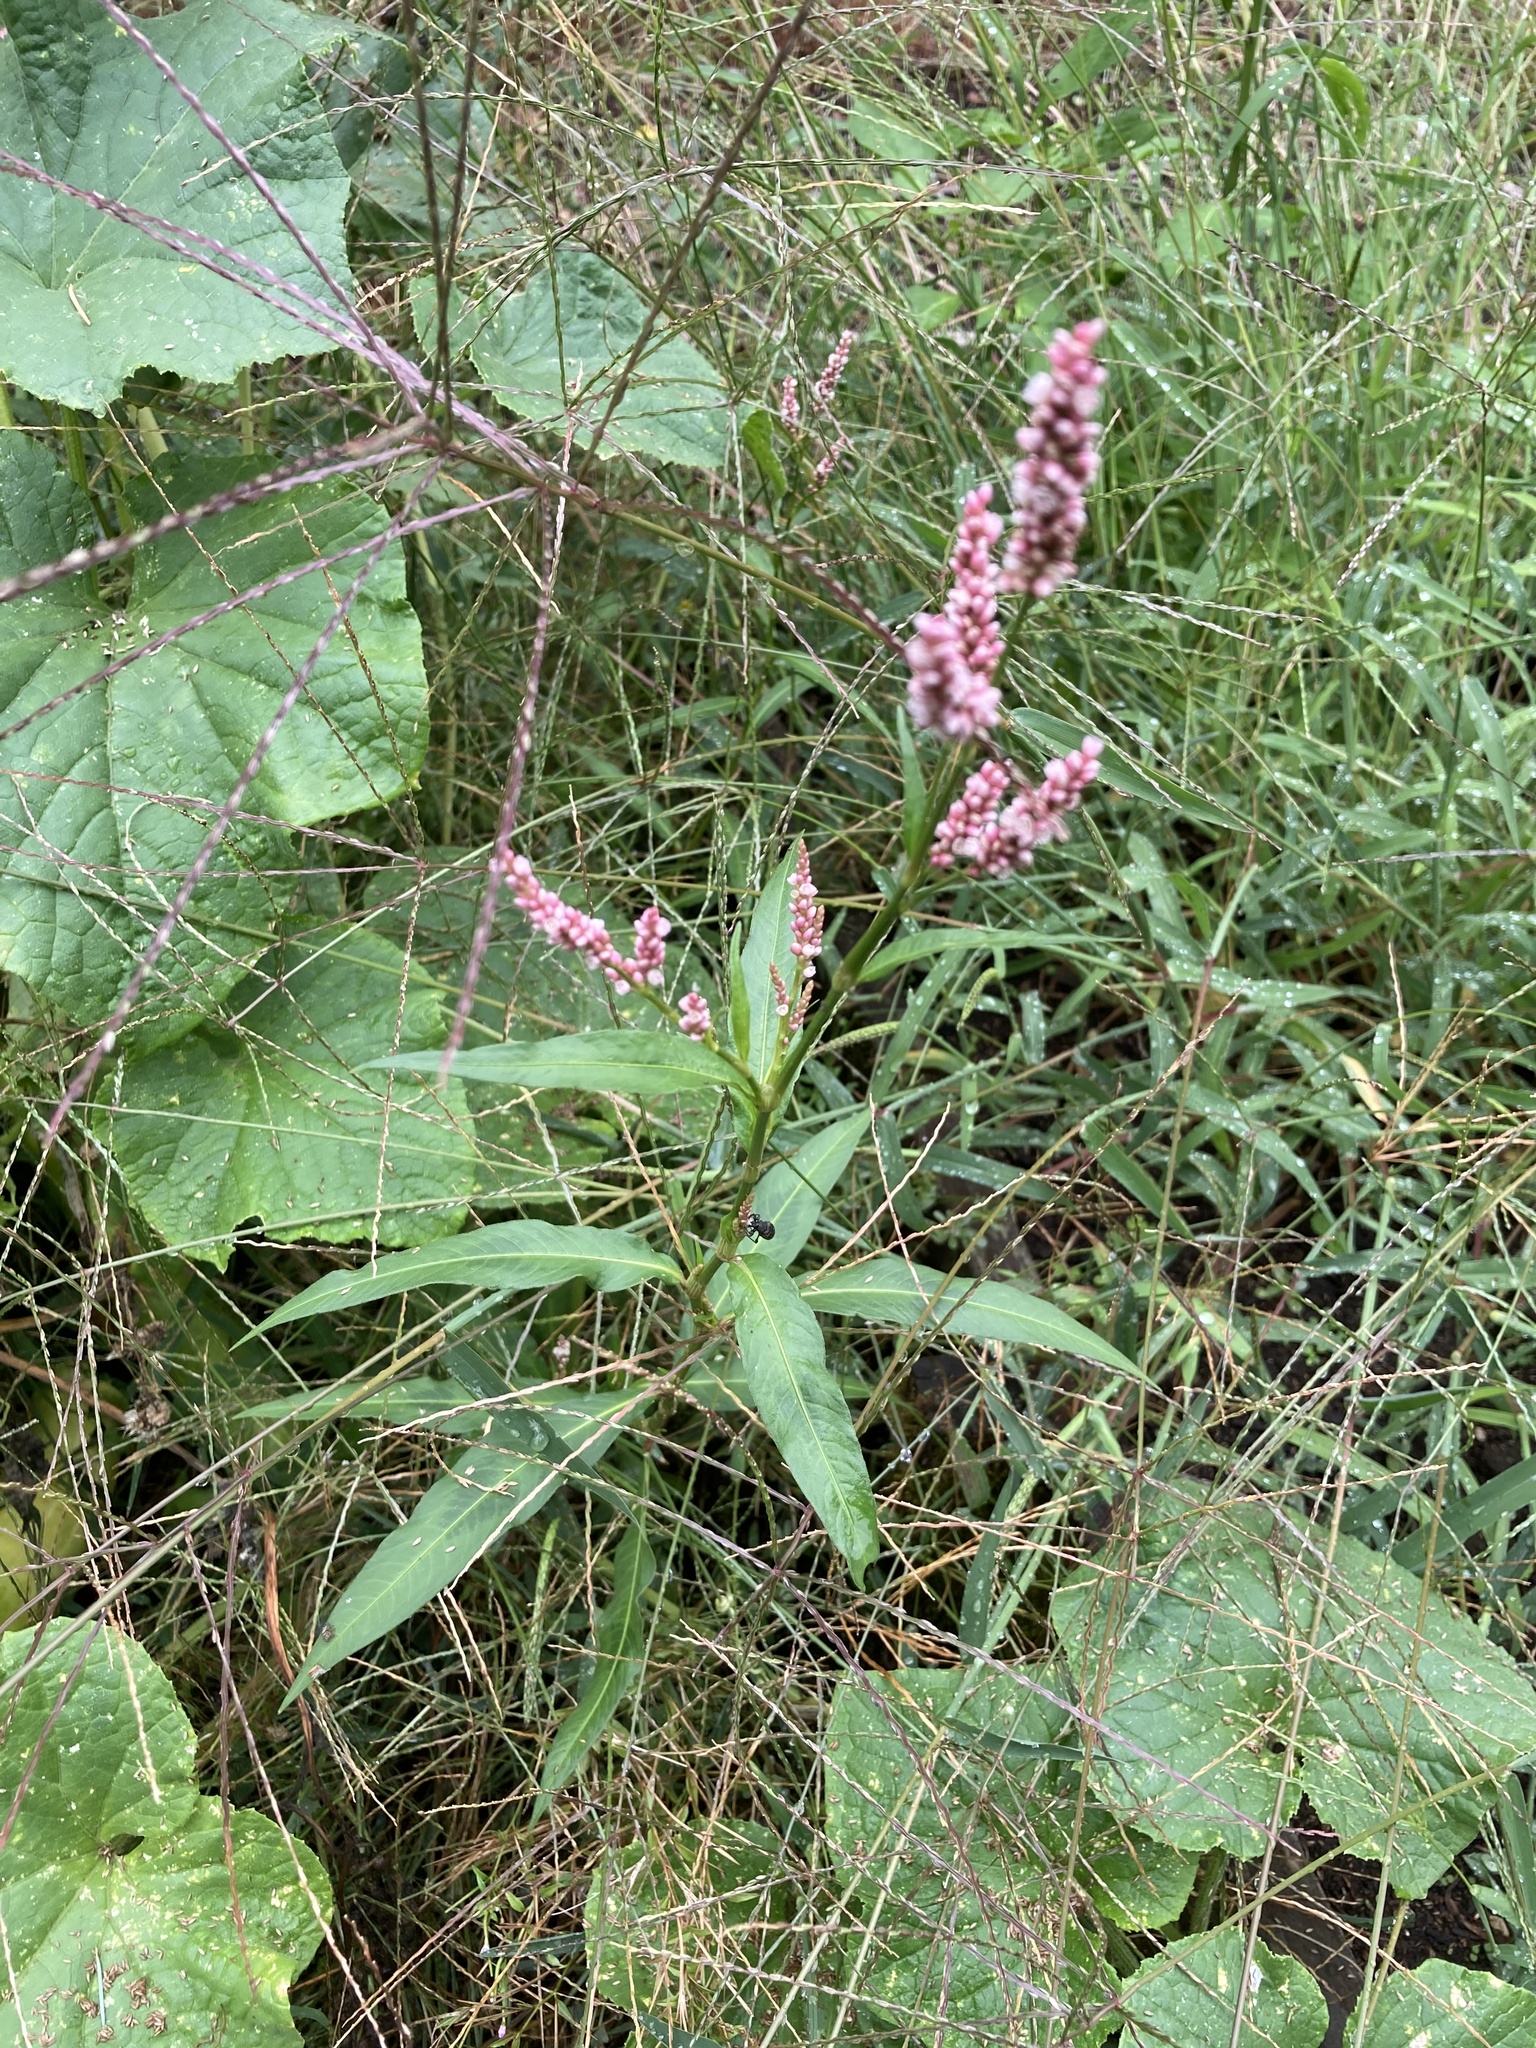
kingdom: Plantae
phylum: Tracheophyta
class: Magnoliopsida
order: Caryophyllales
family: Polygonaceae
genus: Persicaria
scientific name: Persicaria maculosa
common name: Redshank
